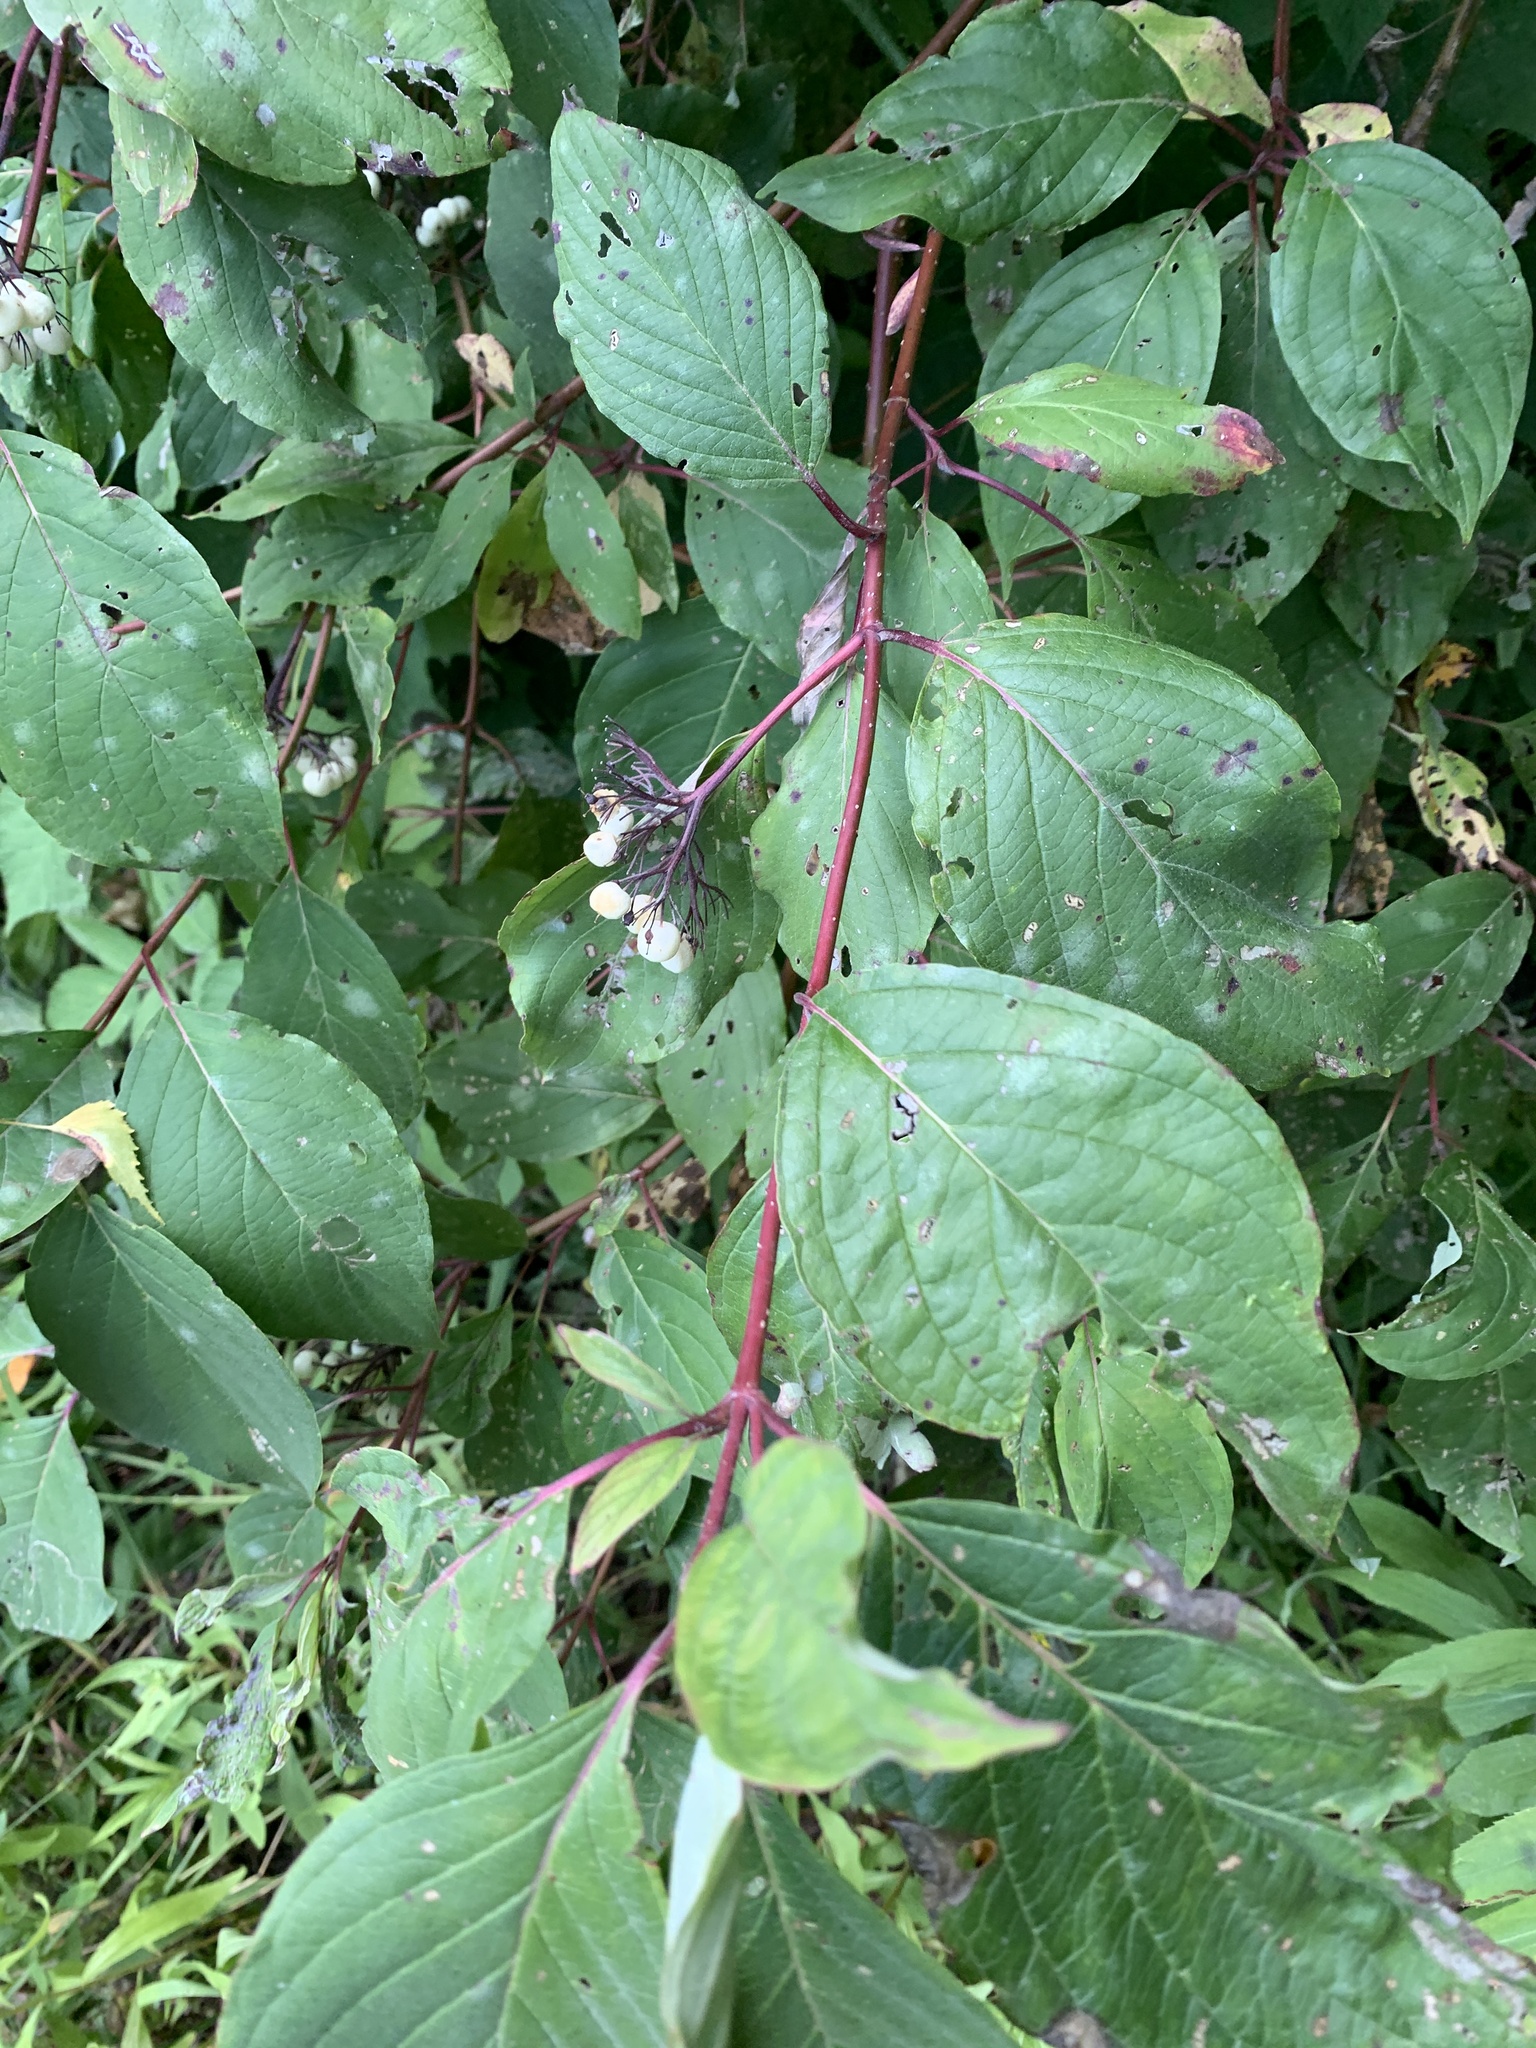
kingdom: Plantae
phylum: Tracheophyta
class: Magnoliopsida
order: Cornales
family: Cornaceae
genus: Cornus
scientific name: Cornus sericea
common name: Red-osier dogwood
